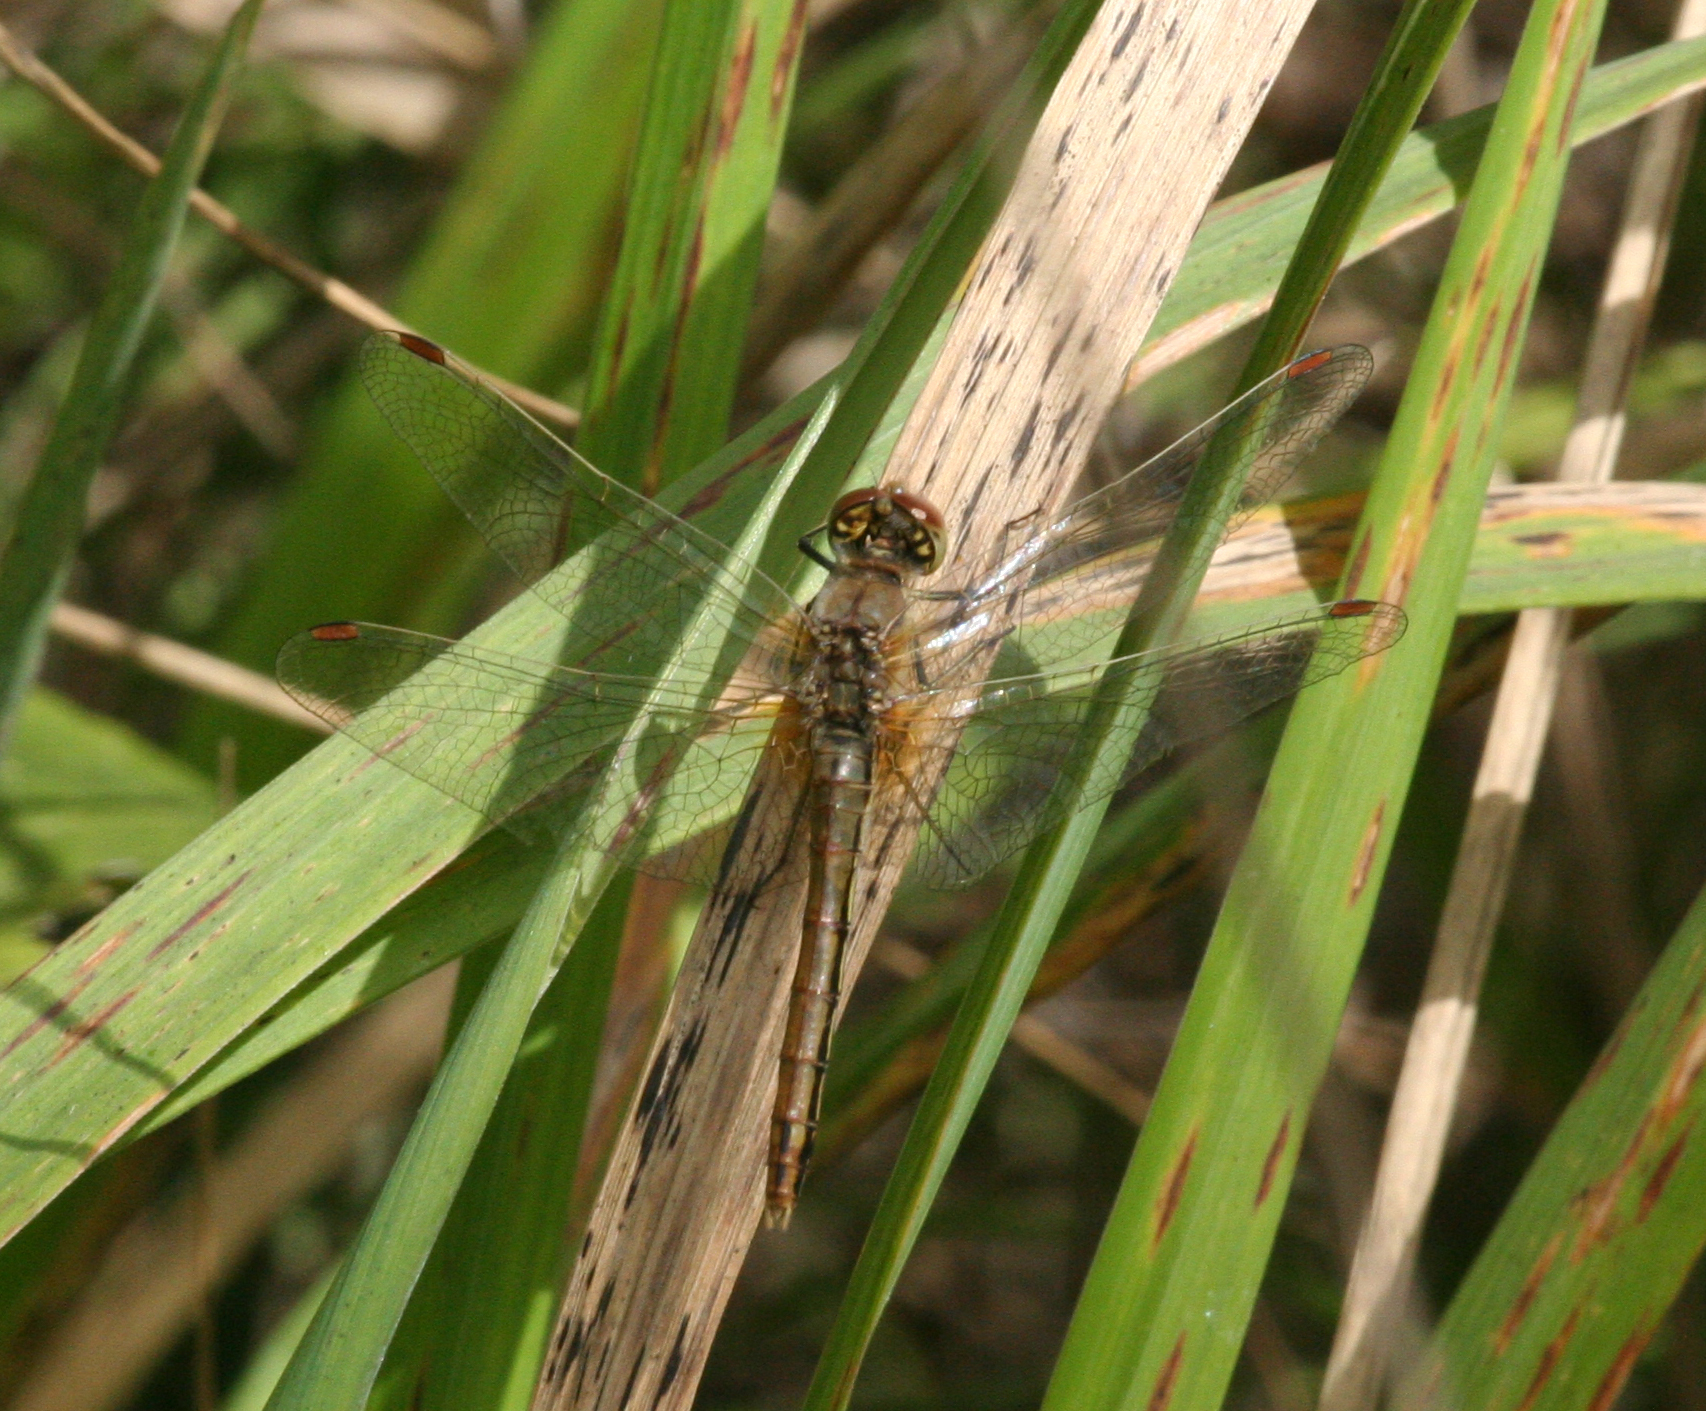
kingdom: Animalia
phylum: Arthropoda
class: Insecta
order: Odonata
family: Libellulidae
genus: Sympetrum
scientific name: Sympetrum flaveolum
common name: Yellow-winged darter
